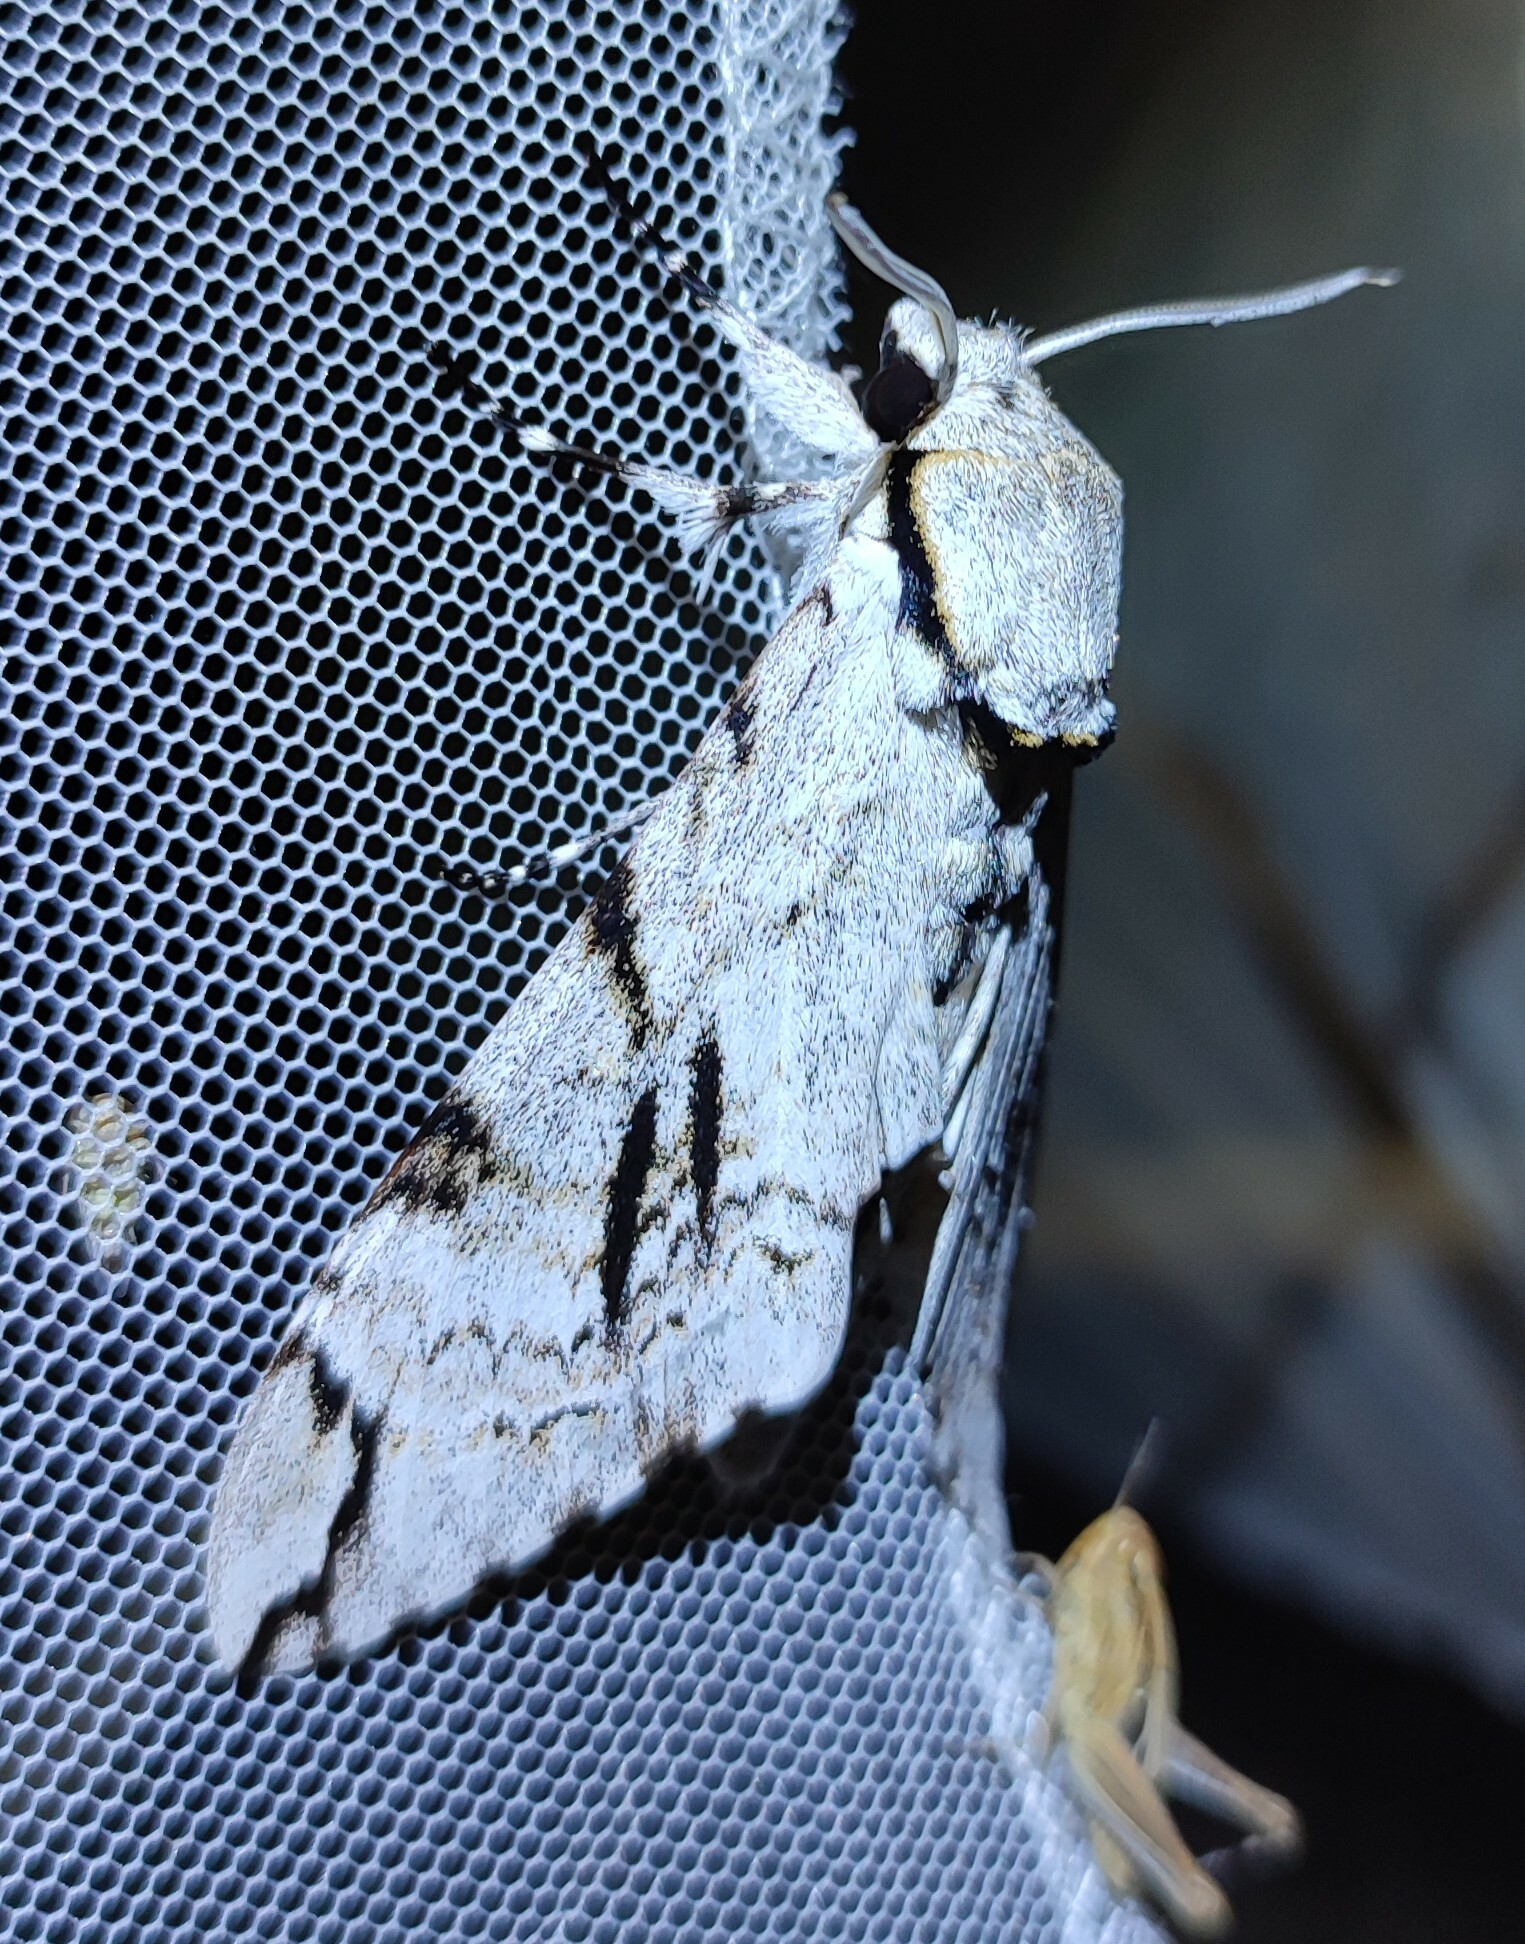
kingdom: Animalia
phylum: Arthropoda
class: Insecta
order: Lepidoptera
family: Sphingidae
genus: Macropoliana
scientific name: Macropoliana gessi
